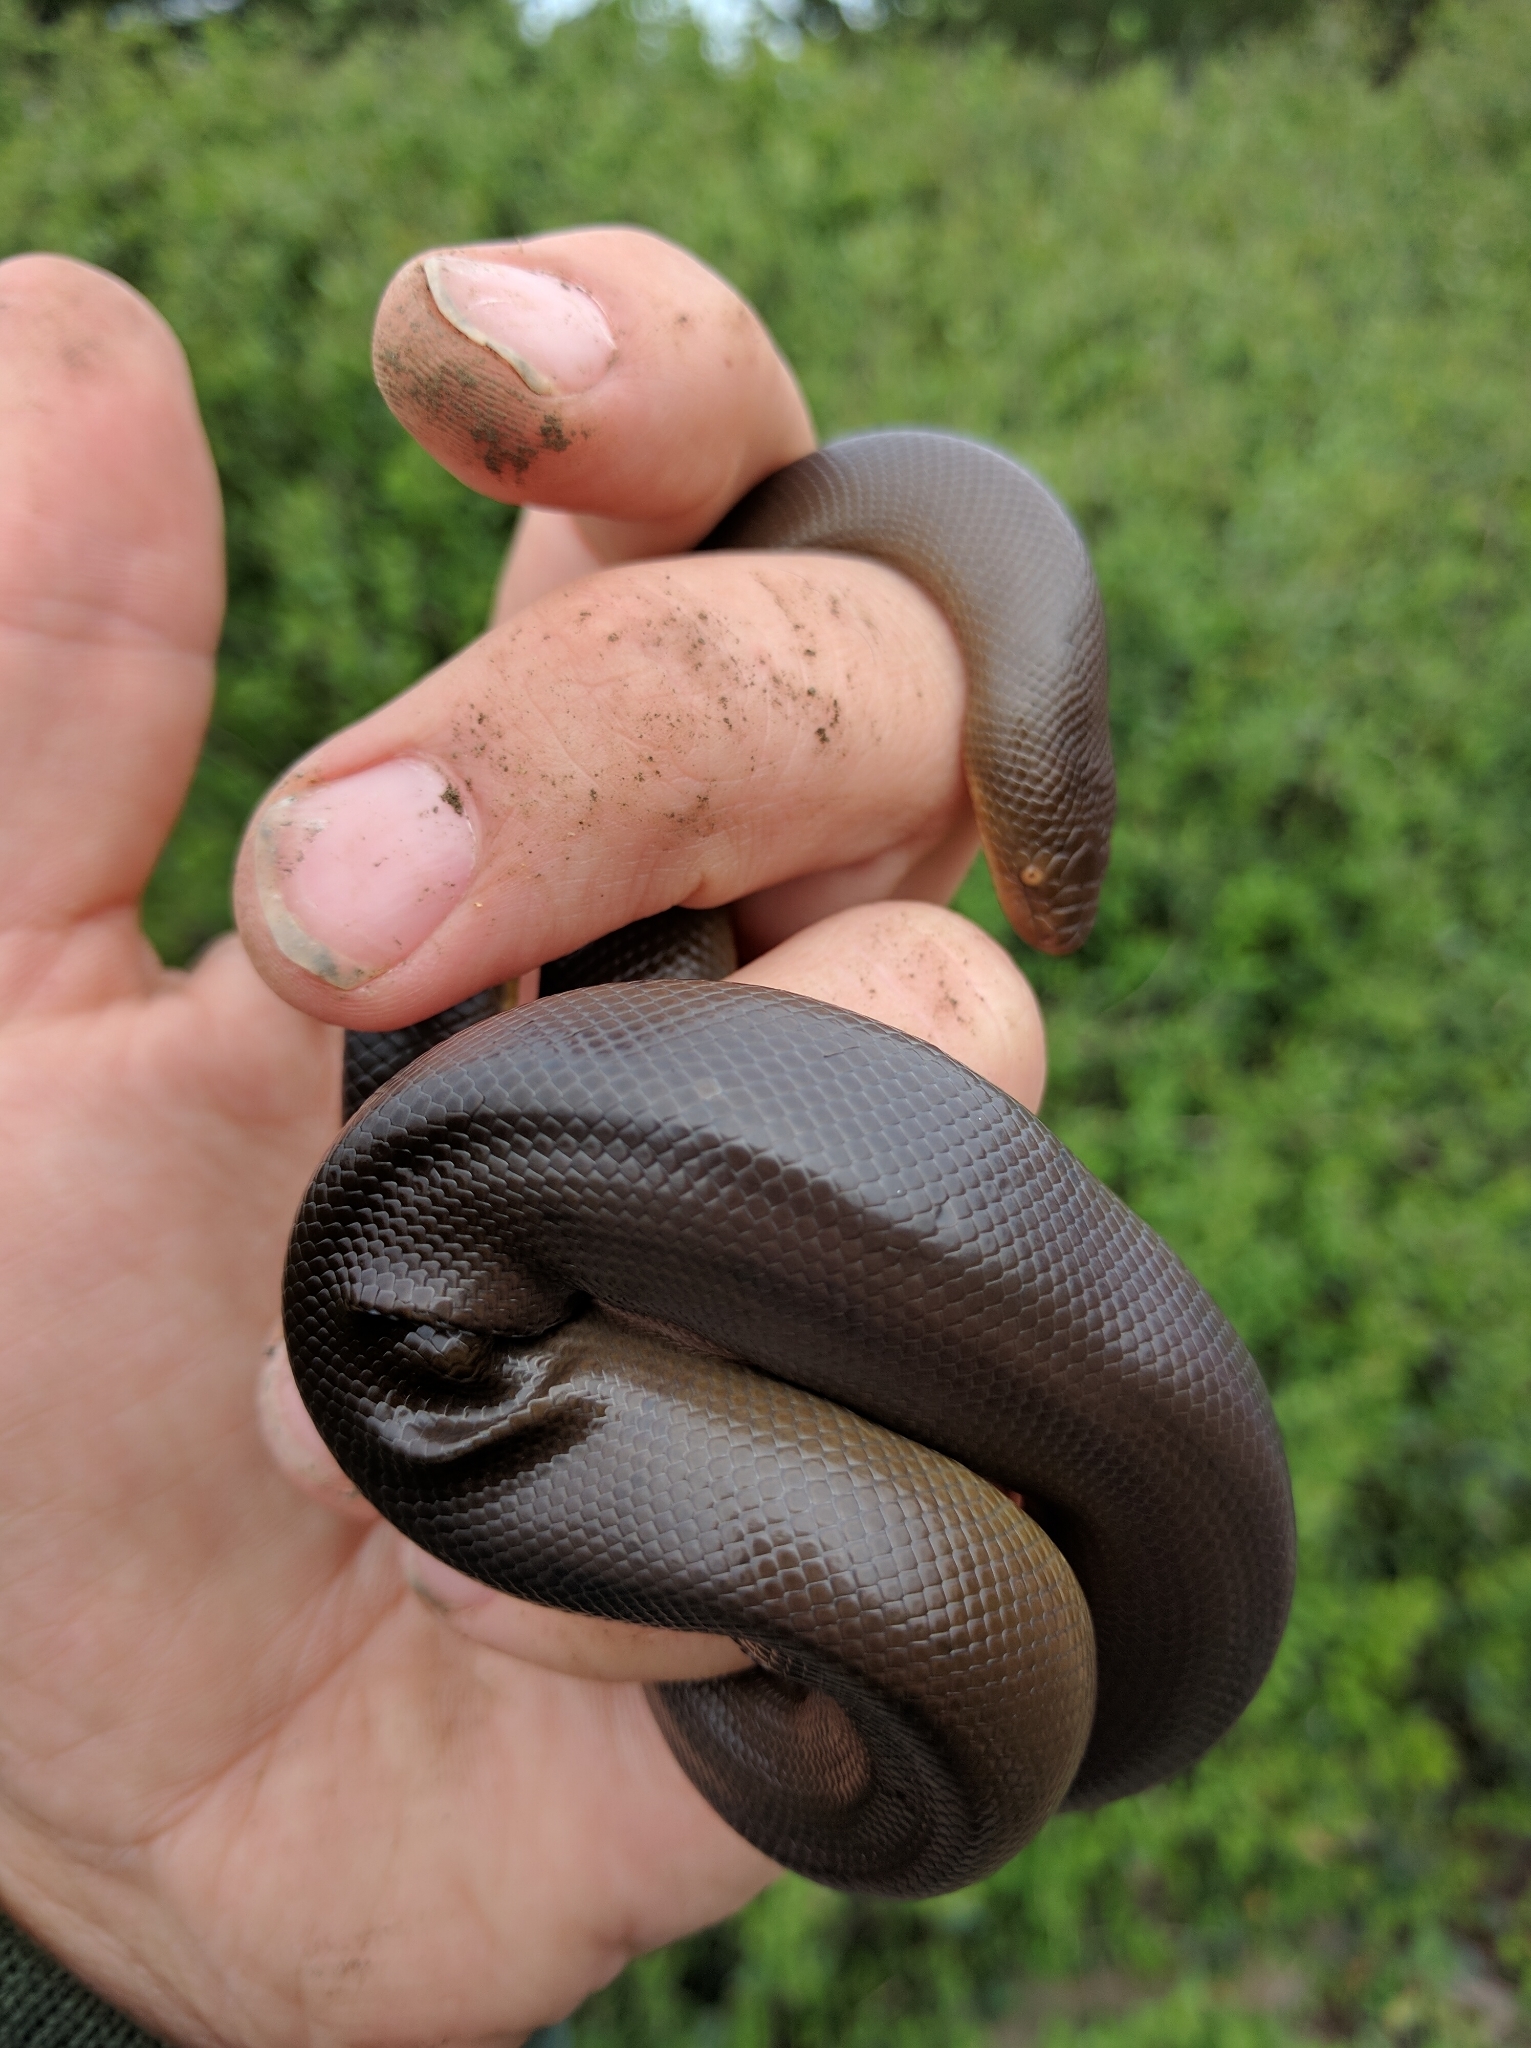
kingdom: Animalia
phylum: Chordata
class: Squamata
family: Boidae
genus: Charina
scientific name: Charina bottae
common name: Northern rubber boa
